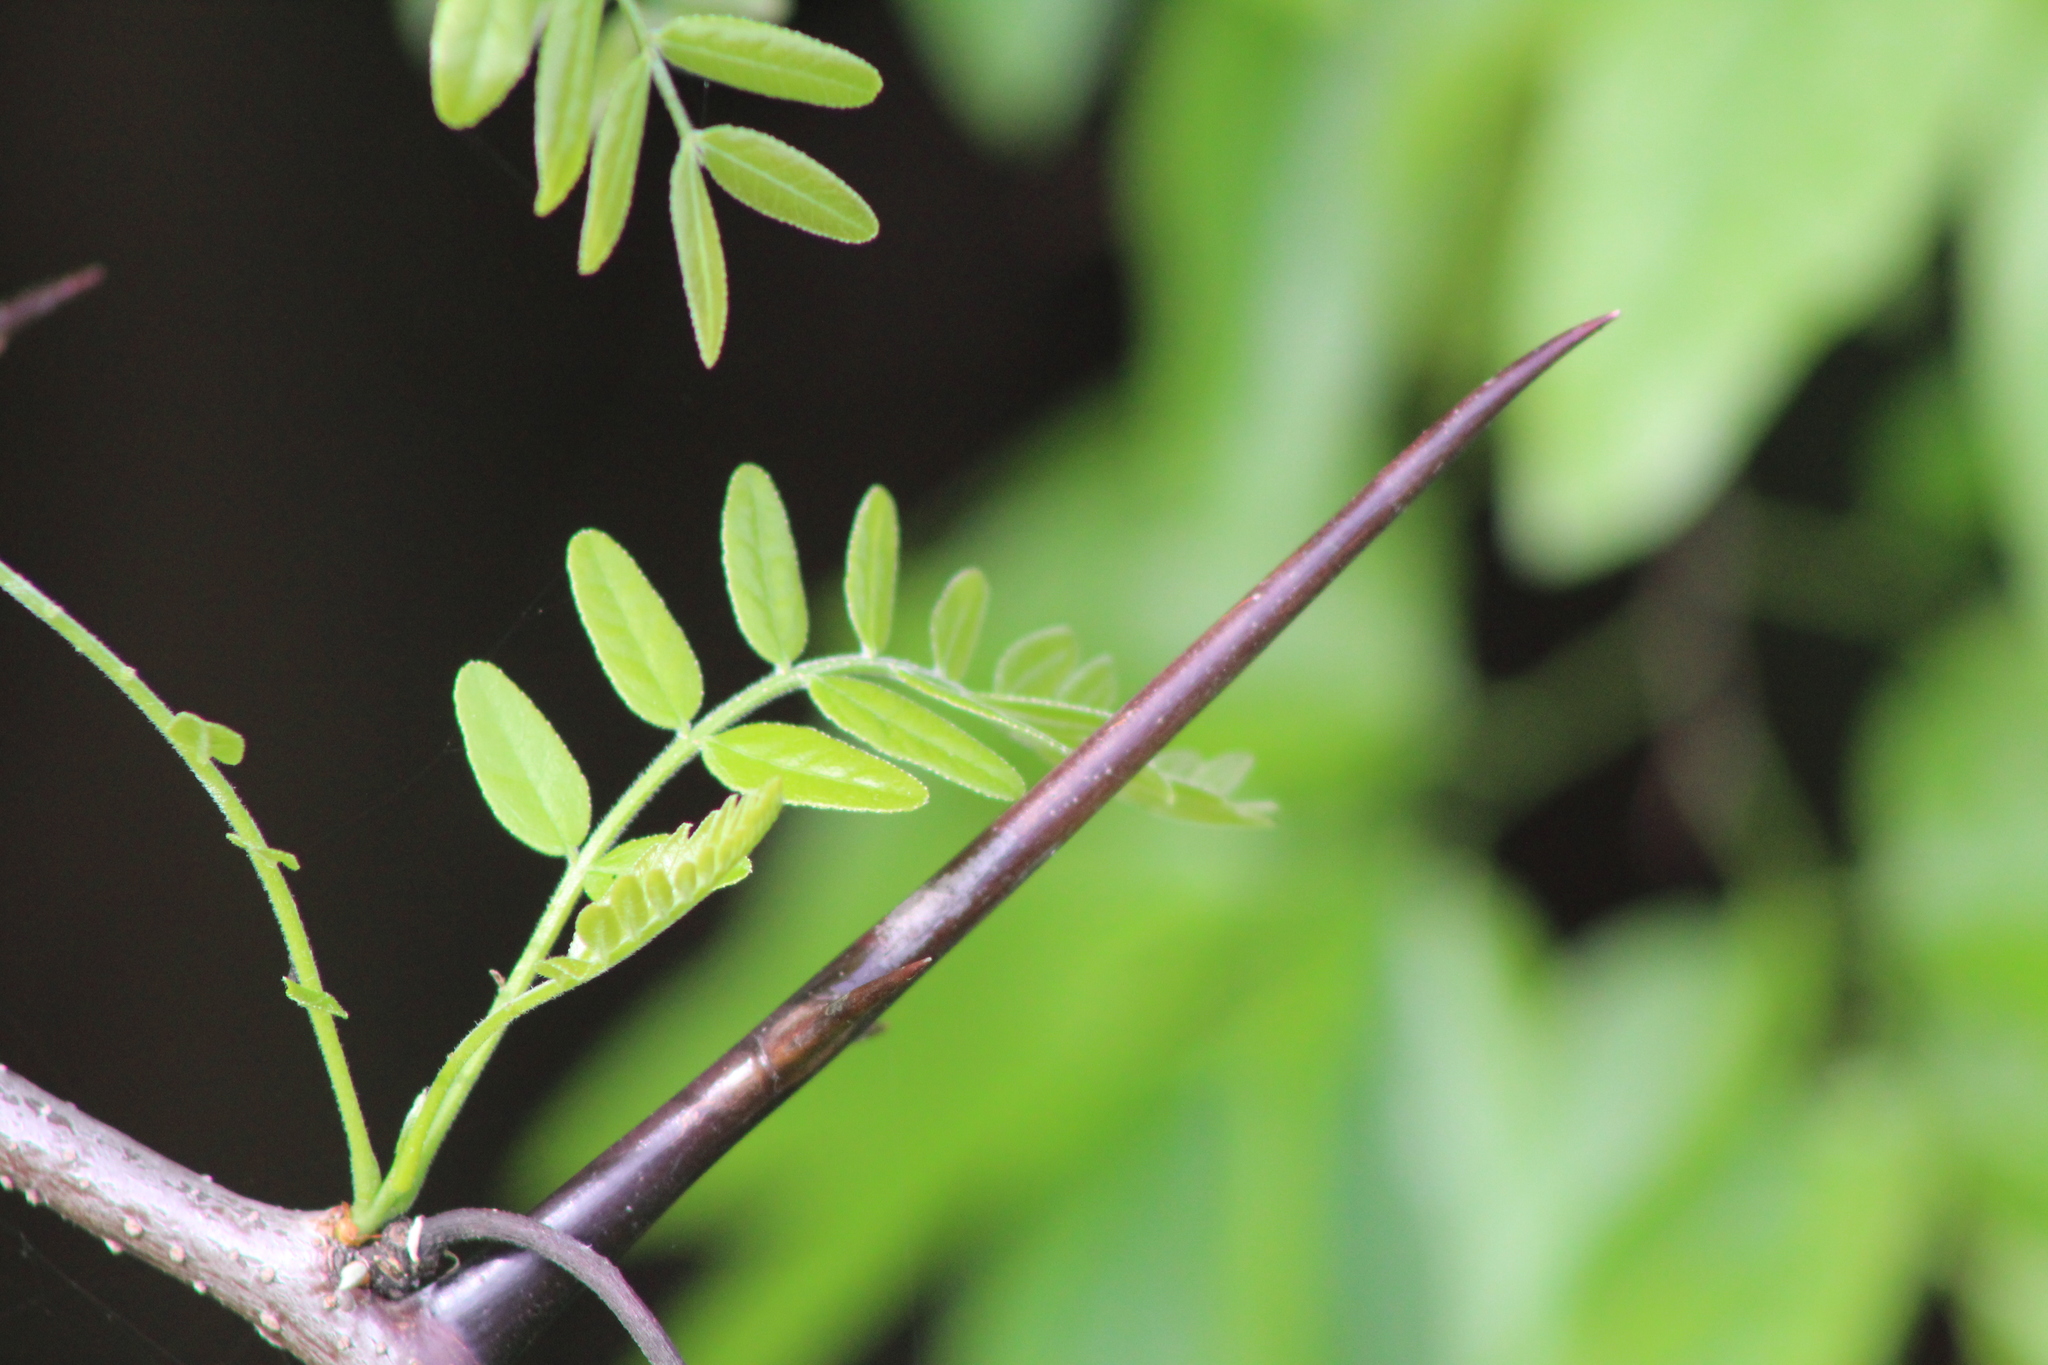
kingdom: Plantae
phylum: Tracheophyta
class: Magnoliopsida
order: Fabales
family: Fabaceae
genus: Gleditsia
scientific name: Gleditsia triacanthos
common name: Common honeylocust
